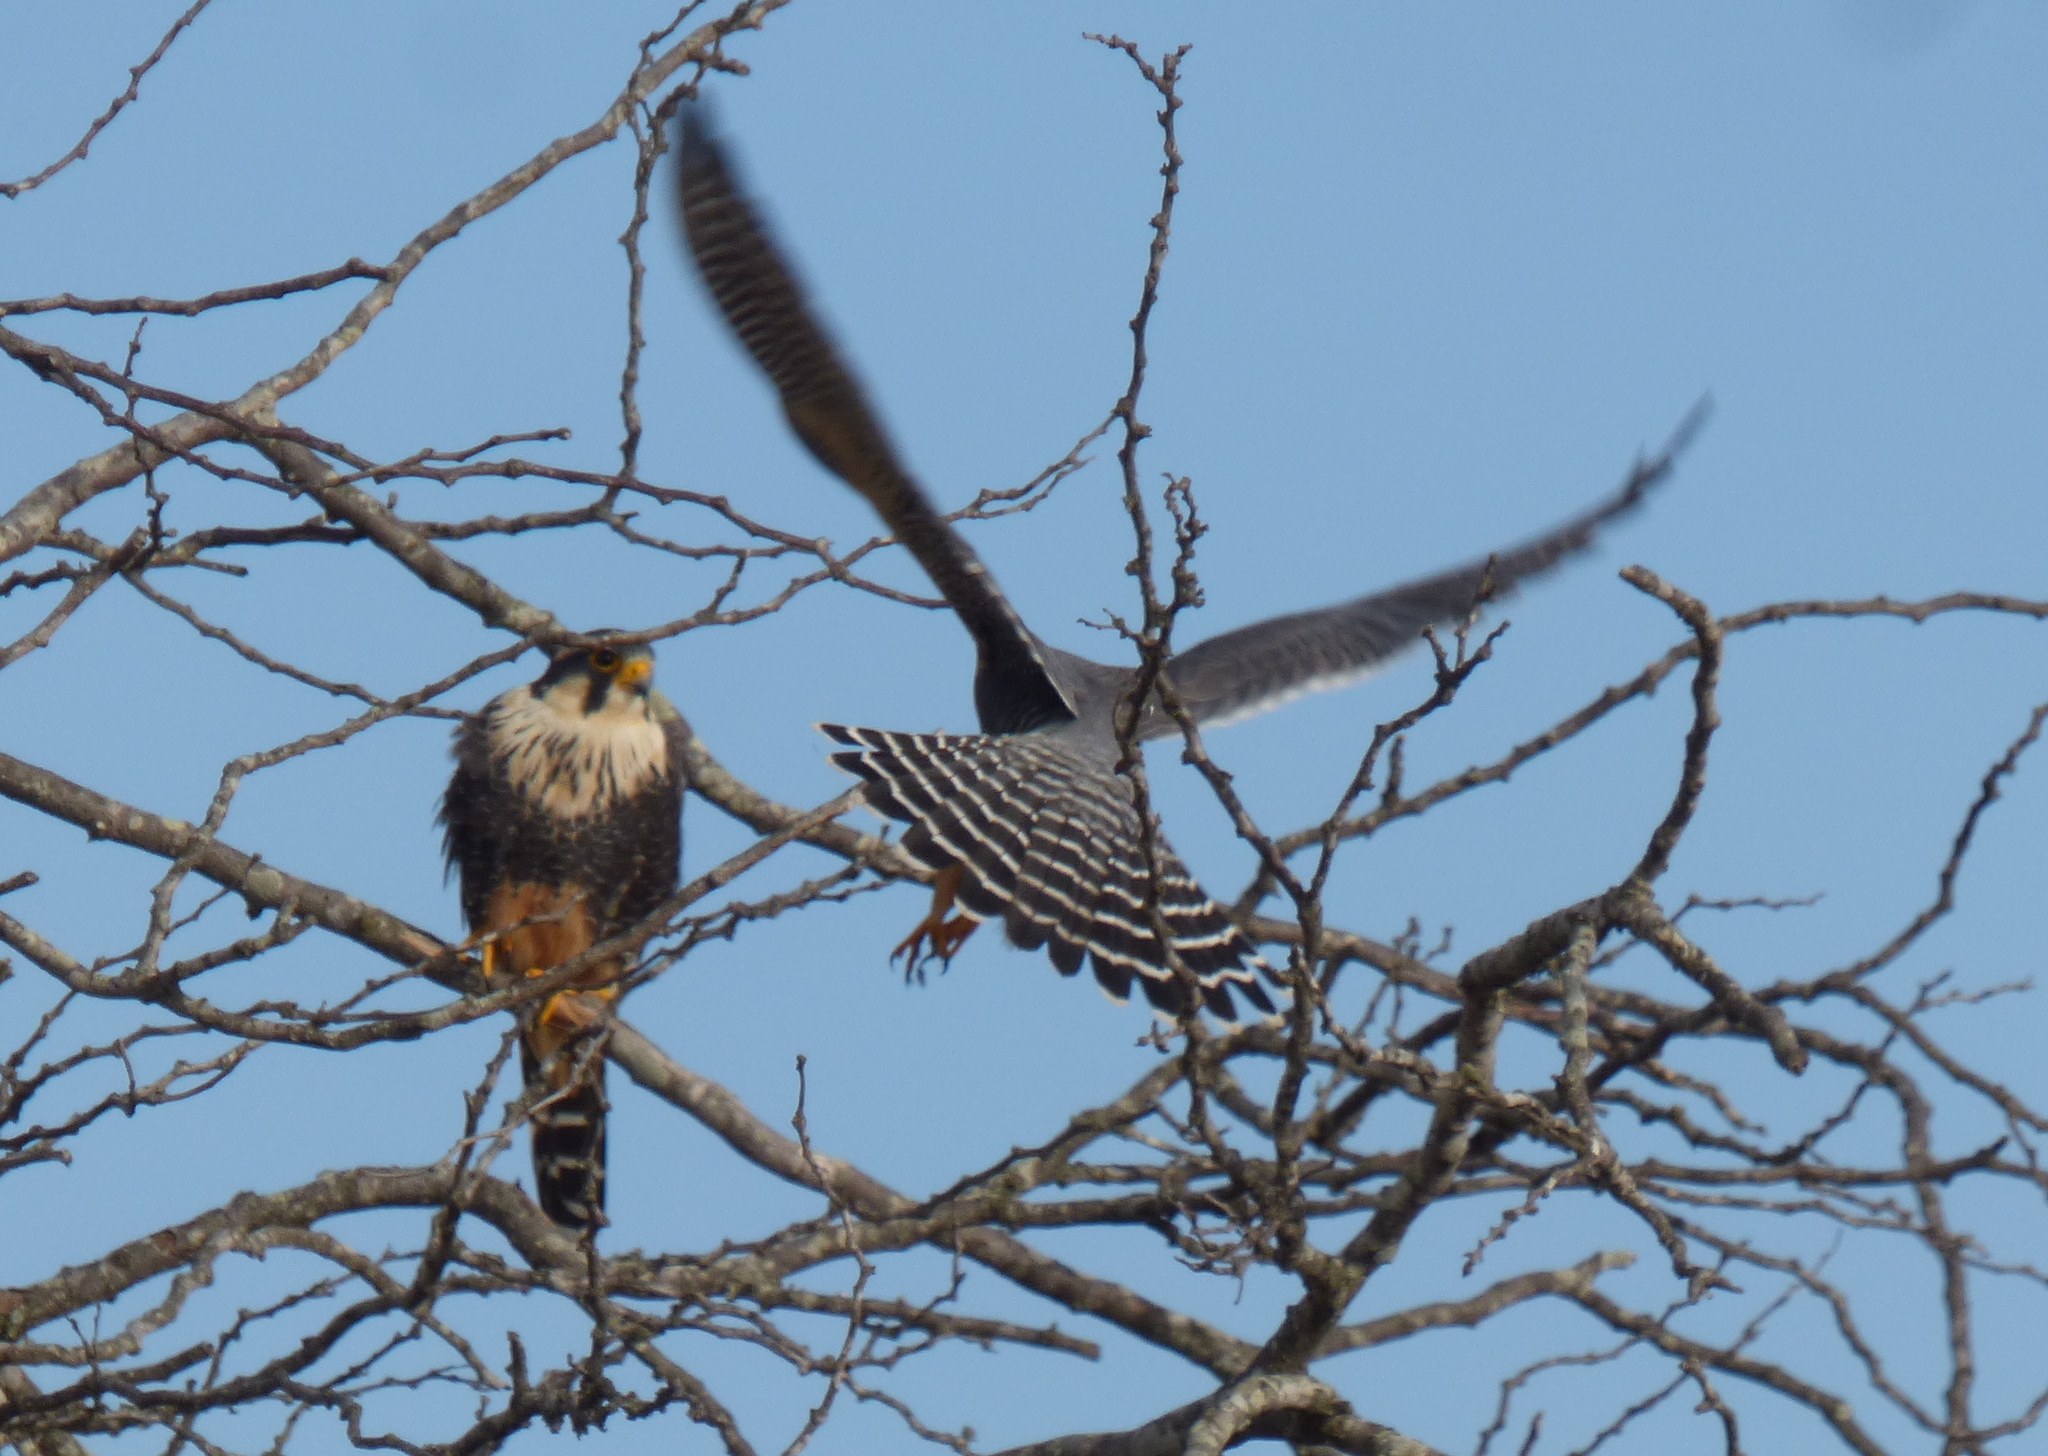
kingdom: Animalia
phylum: Chordata
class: Aves
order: Falconiformes
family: Falconidae
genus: Falco
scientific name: Falco femoralis
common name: Aplomado falcon
